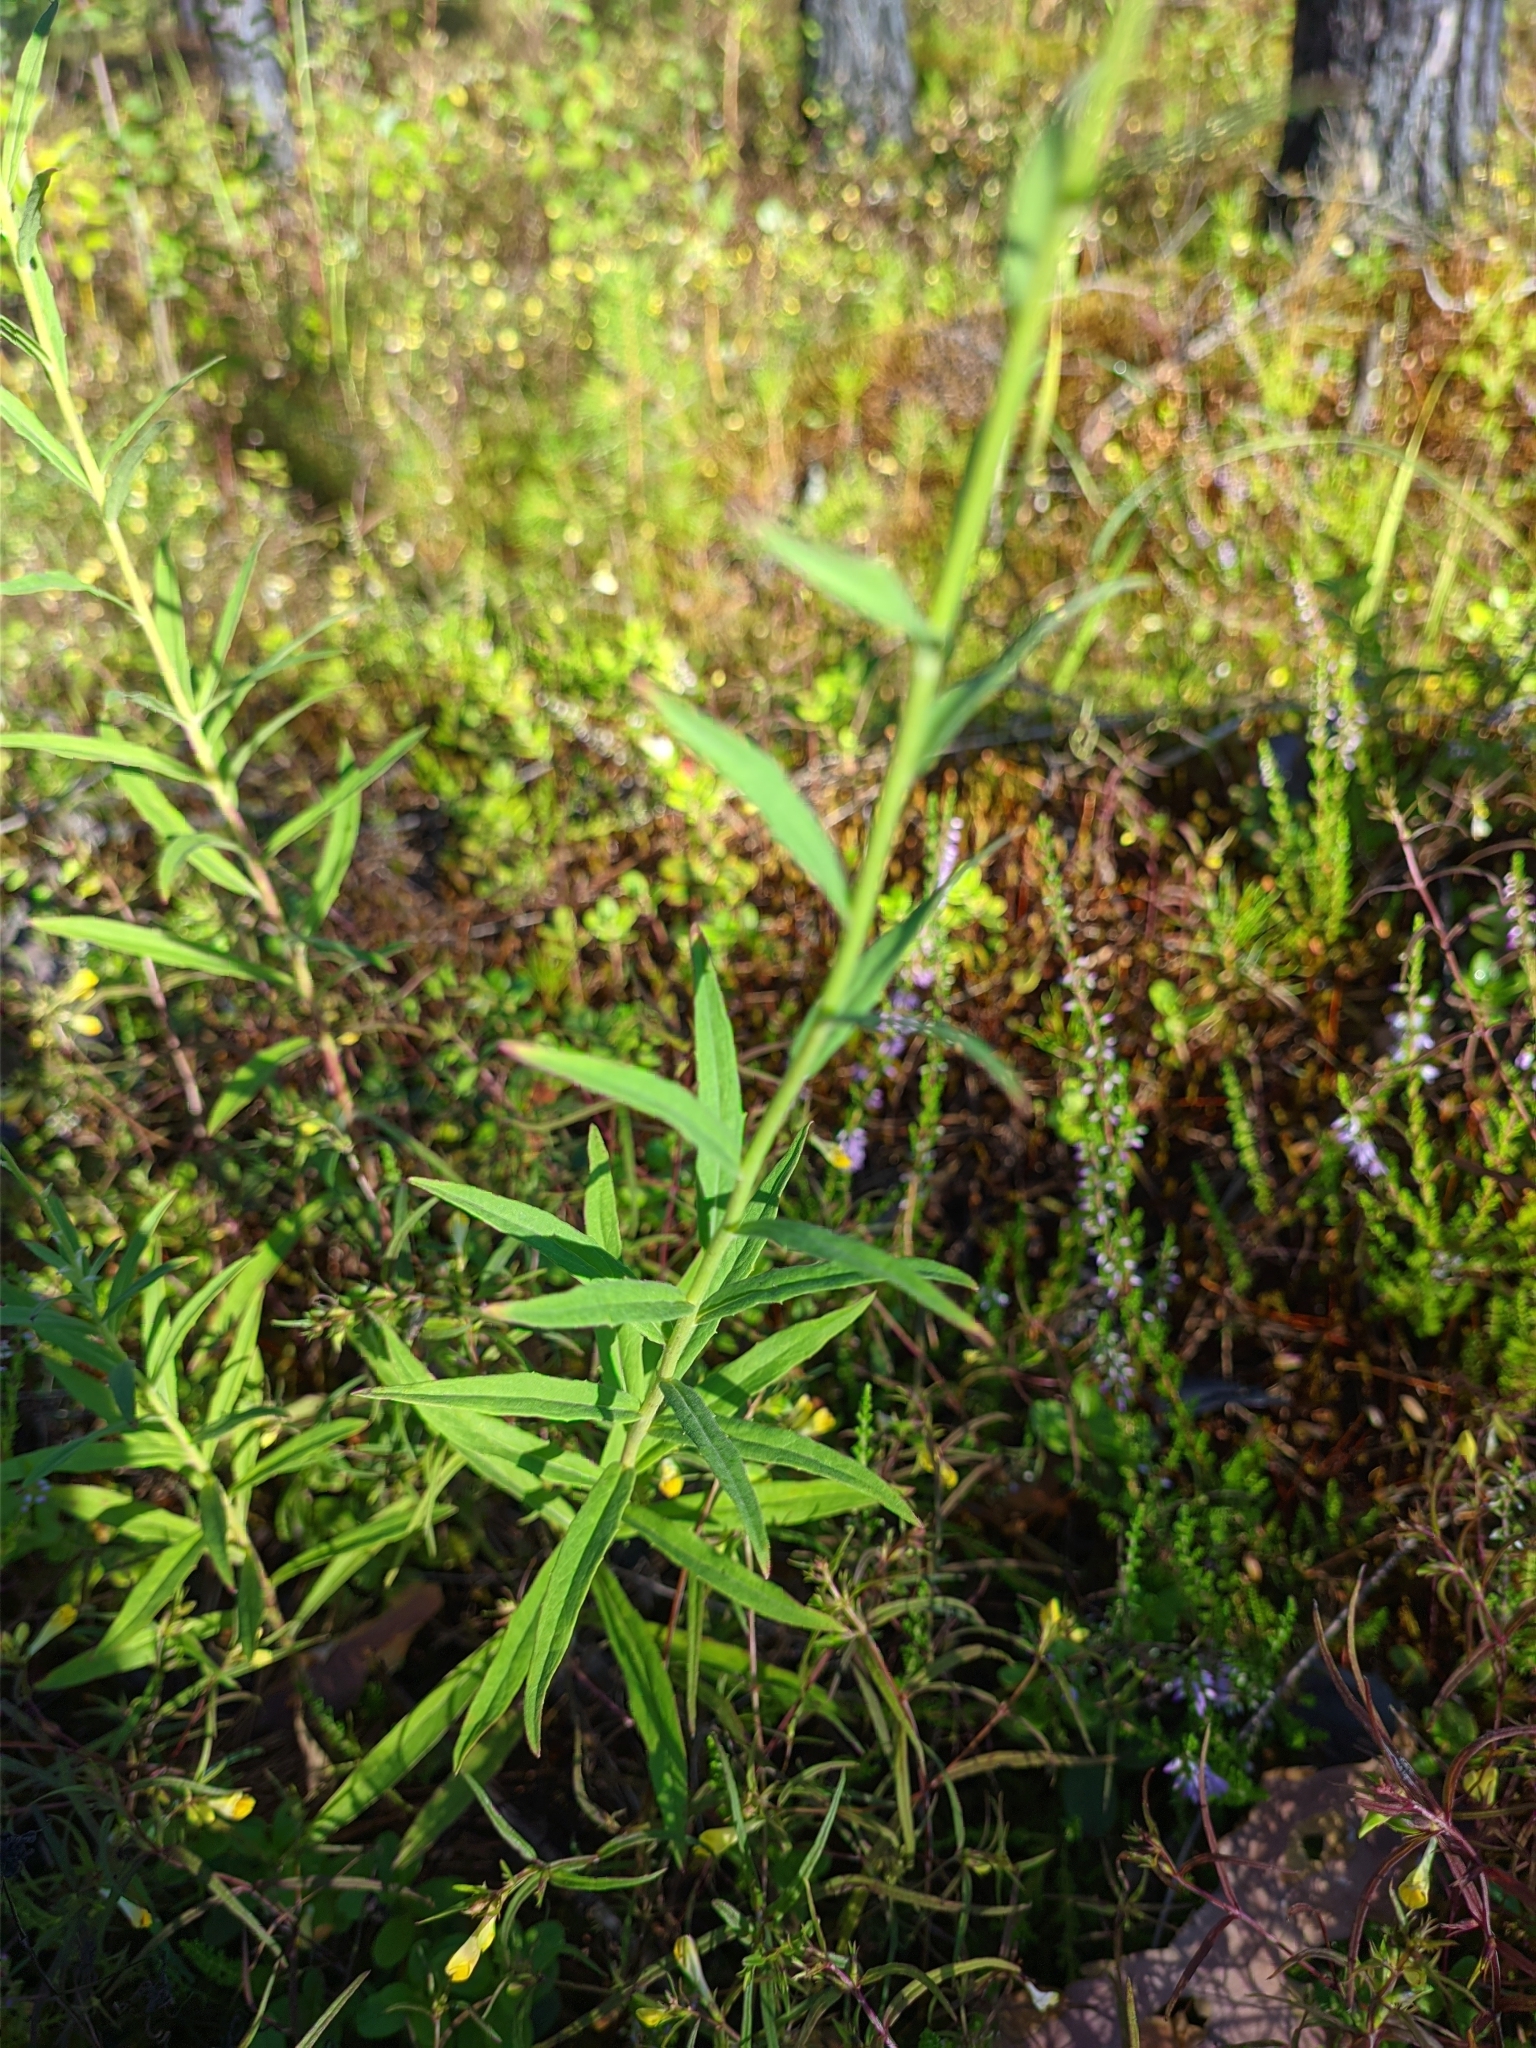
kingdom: Plantae
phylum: Tracheophyta
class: Magnoliopsida
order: Asterales
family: Asteraceae
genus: Hieracium
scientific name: Hieracium umbellatum
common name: Northern hawkweed
